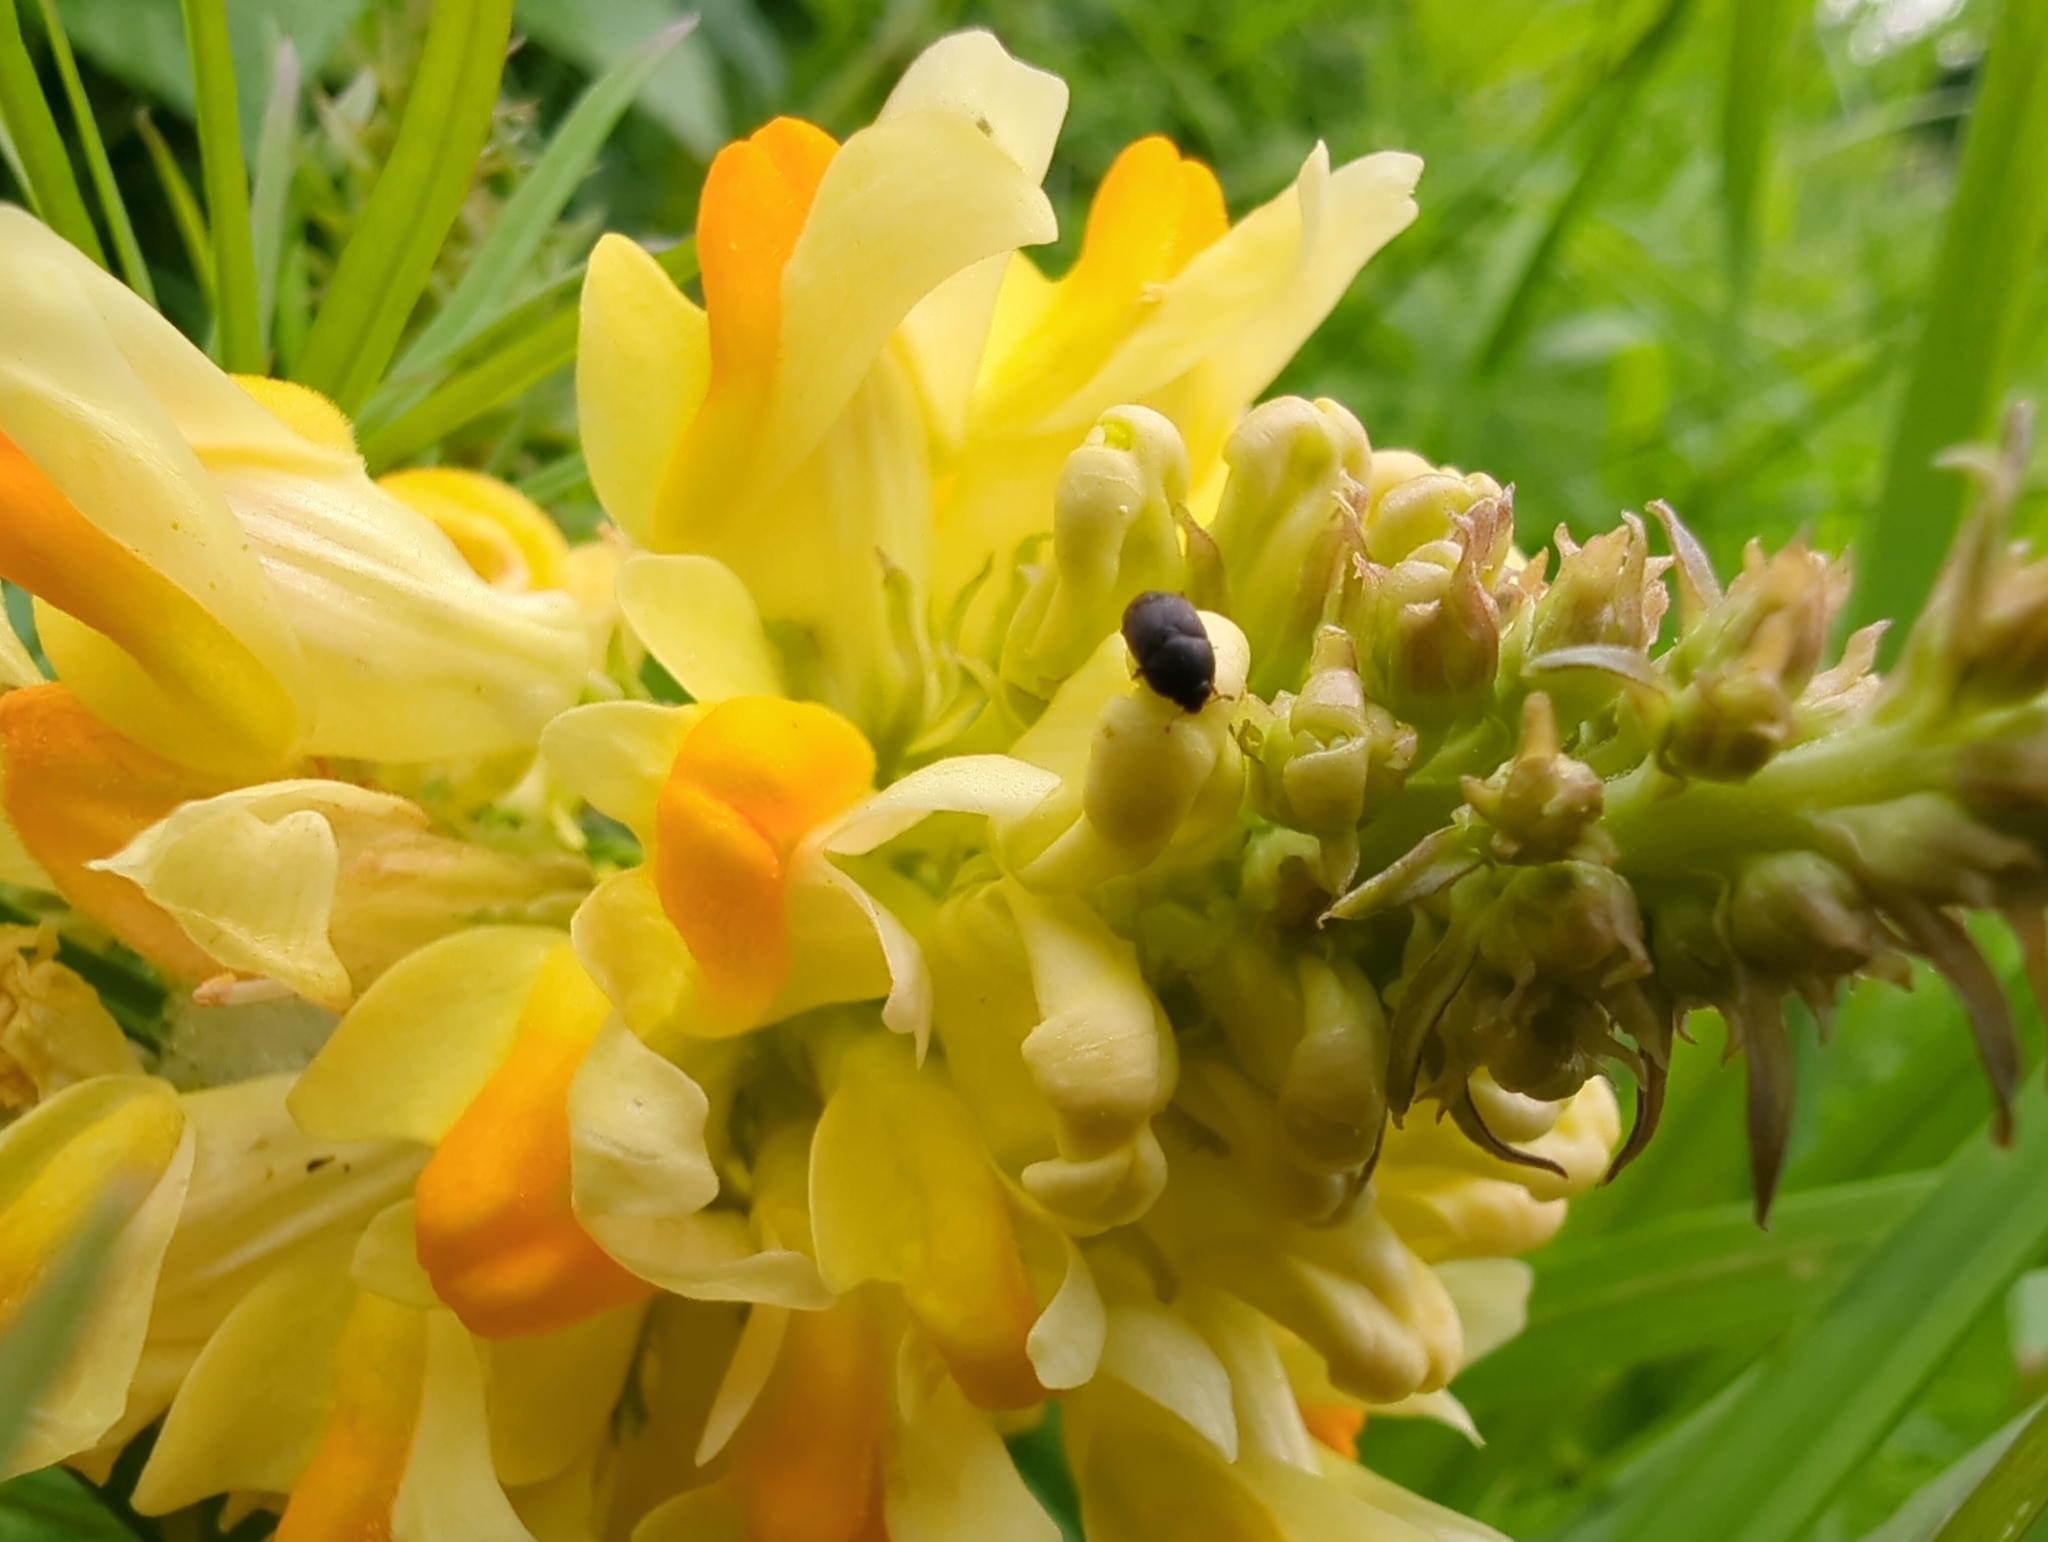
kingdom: Animalia
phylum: Arthropoda
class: Insecta
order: Coleoptera
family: Kateretidae
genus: Brachypterolus
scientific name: Brachypterolus pulicarius
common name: Antirrhinum beetle
